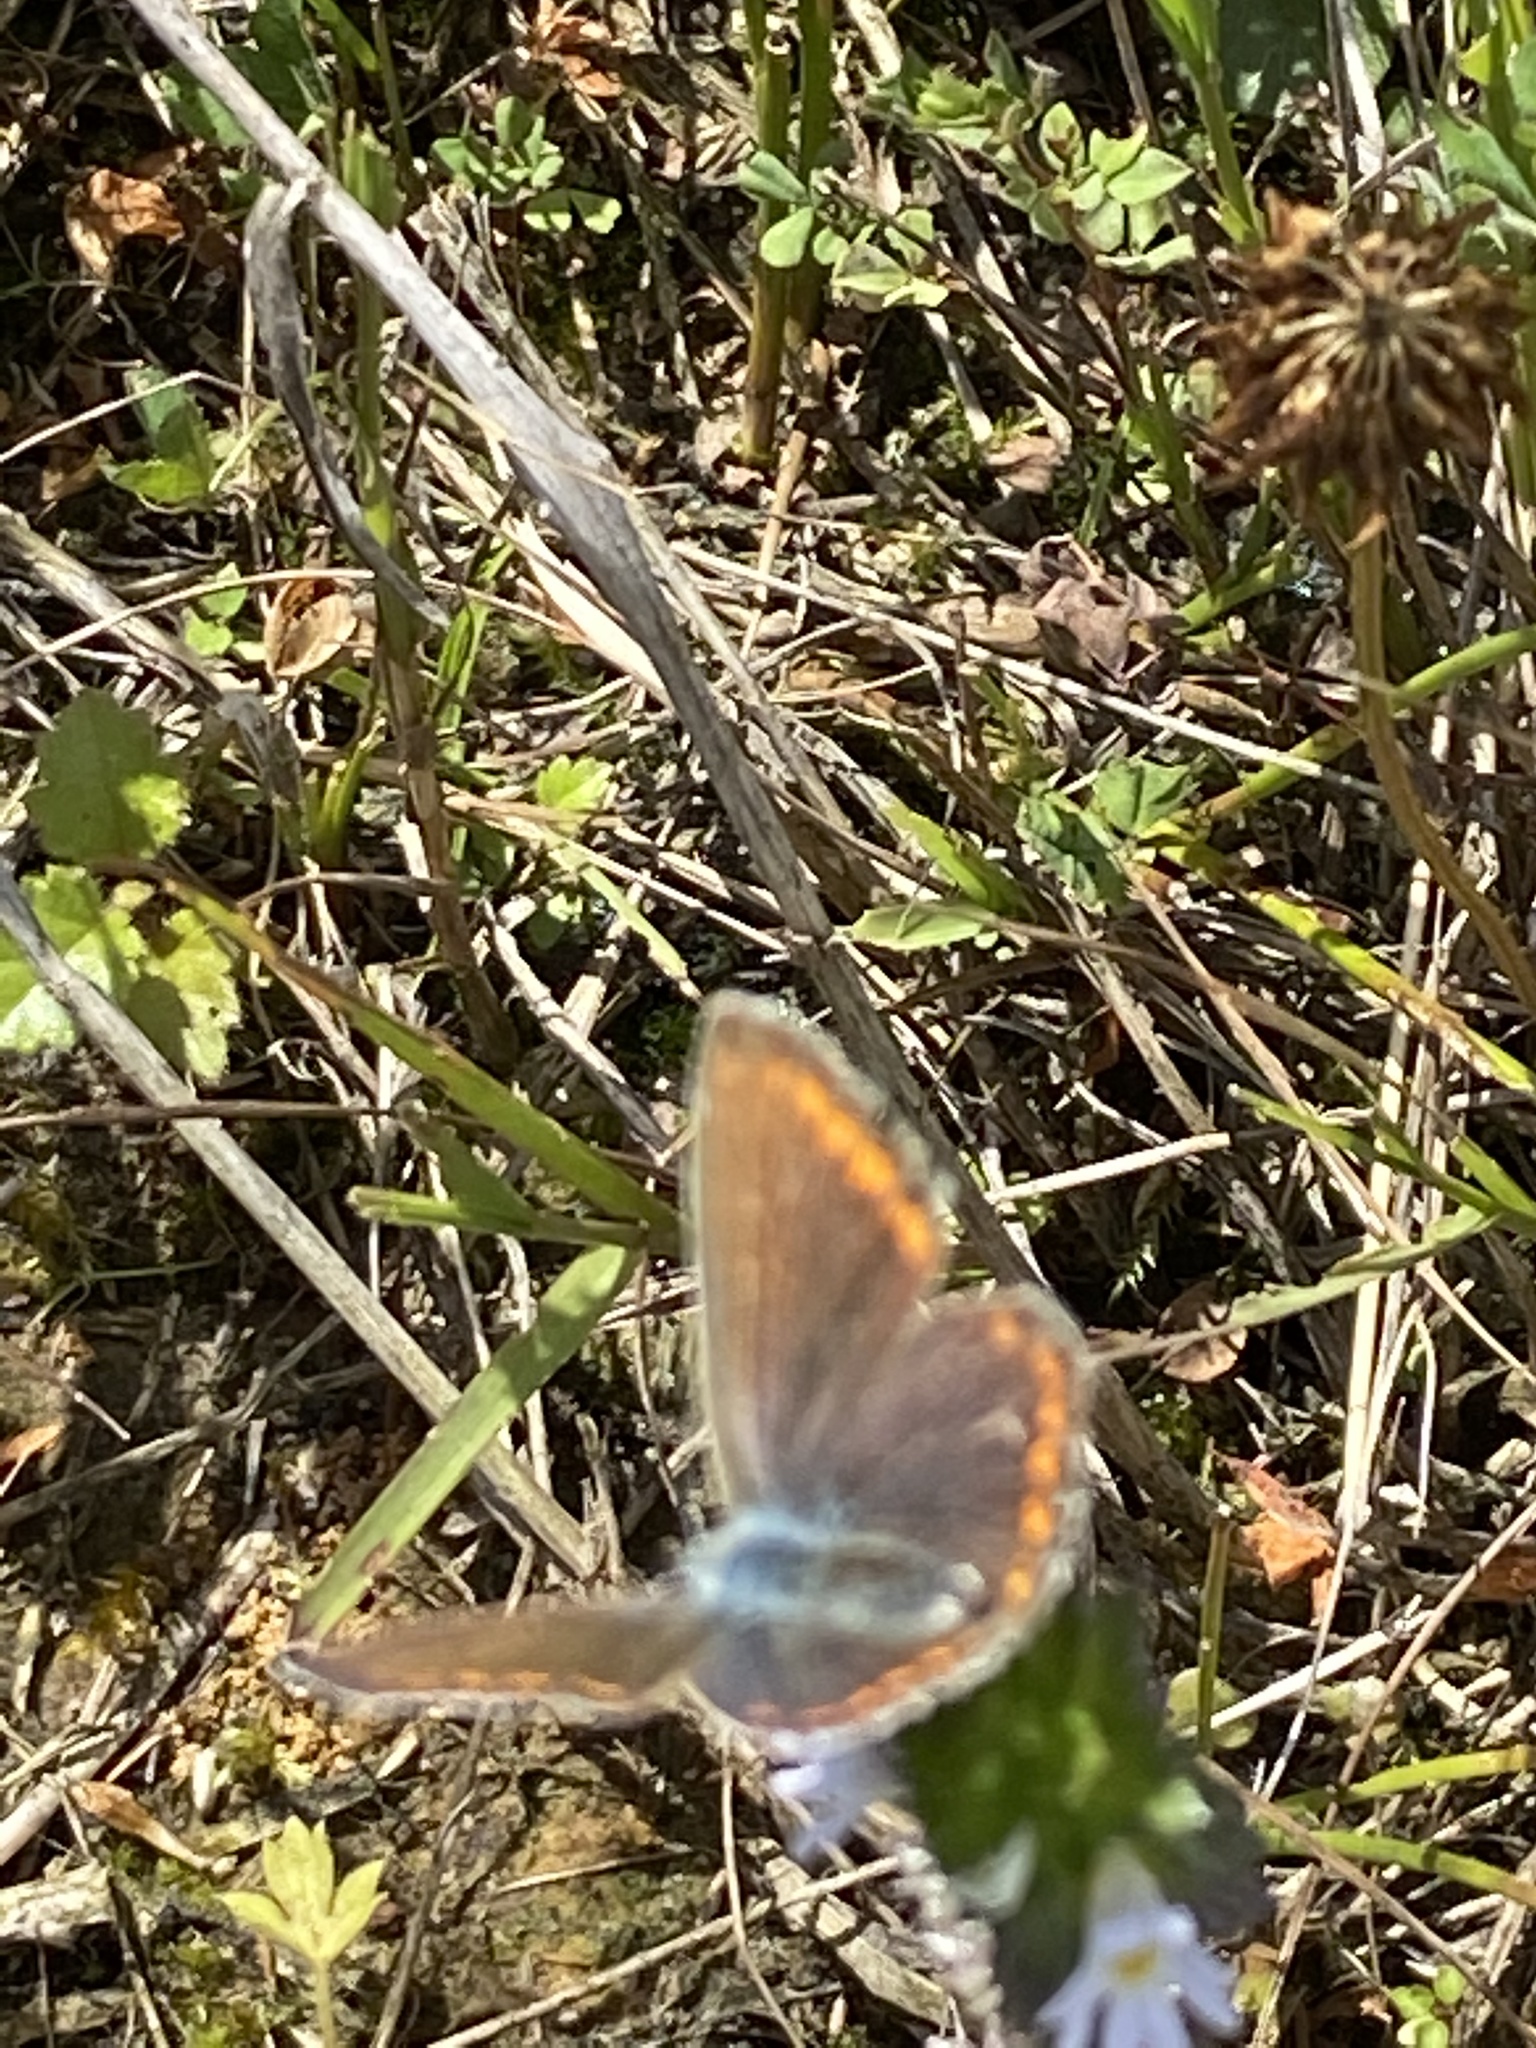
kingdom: Animalia
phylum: Arthropoda
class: Insecta
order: Lepidoptera
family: Lycaenidae
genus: Polyommatus
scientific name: Polyommatus icarus
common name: Common blue
